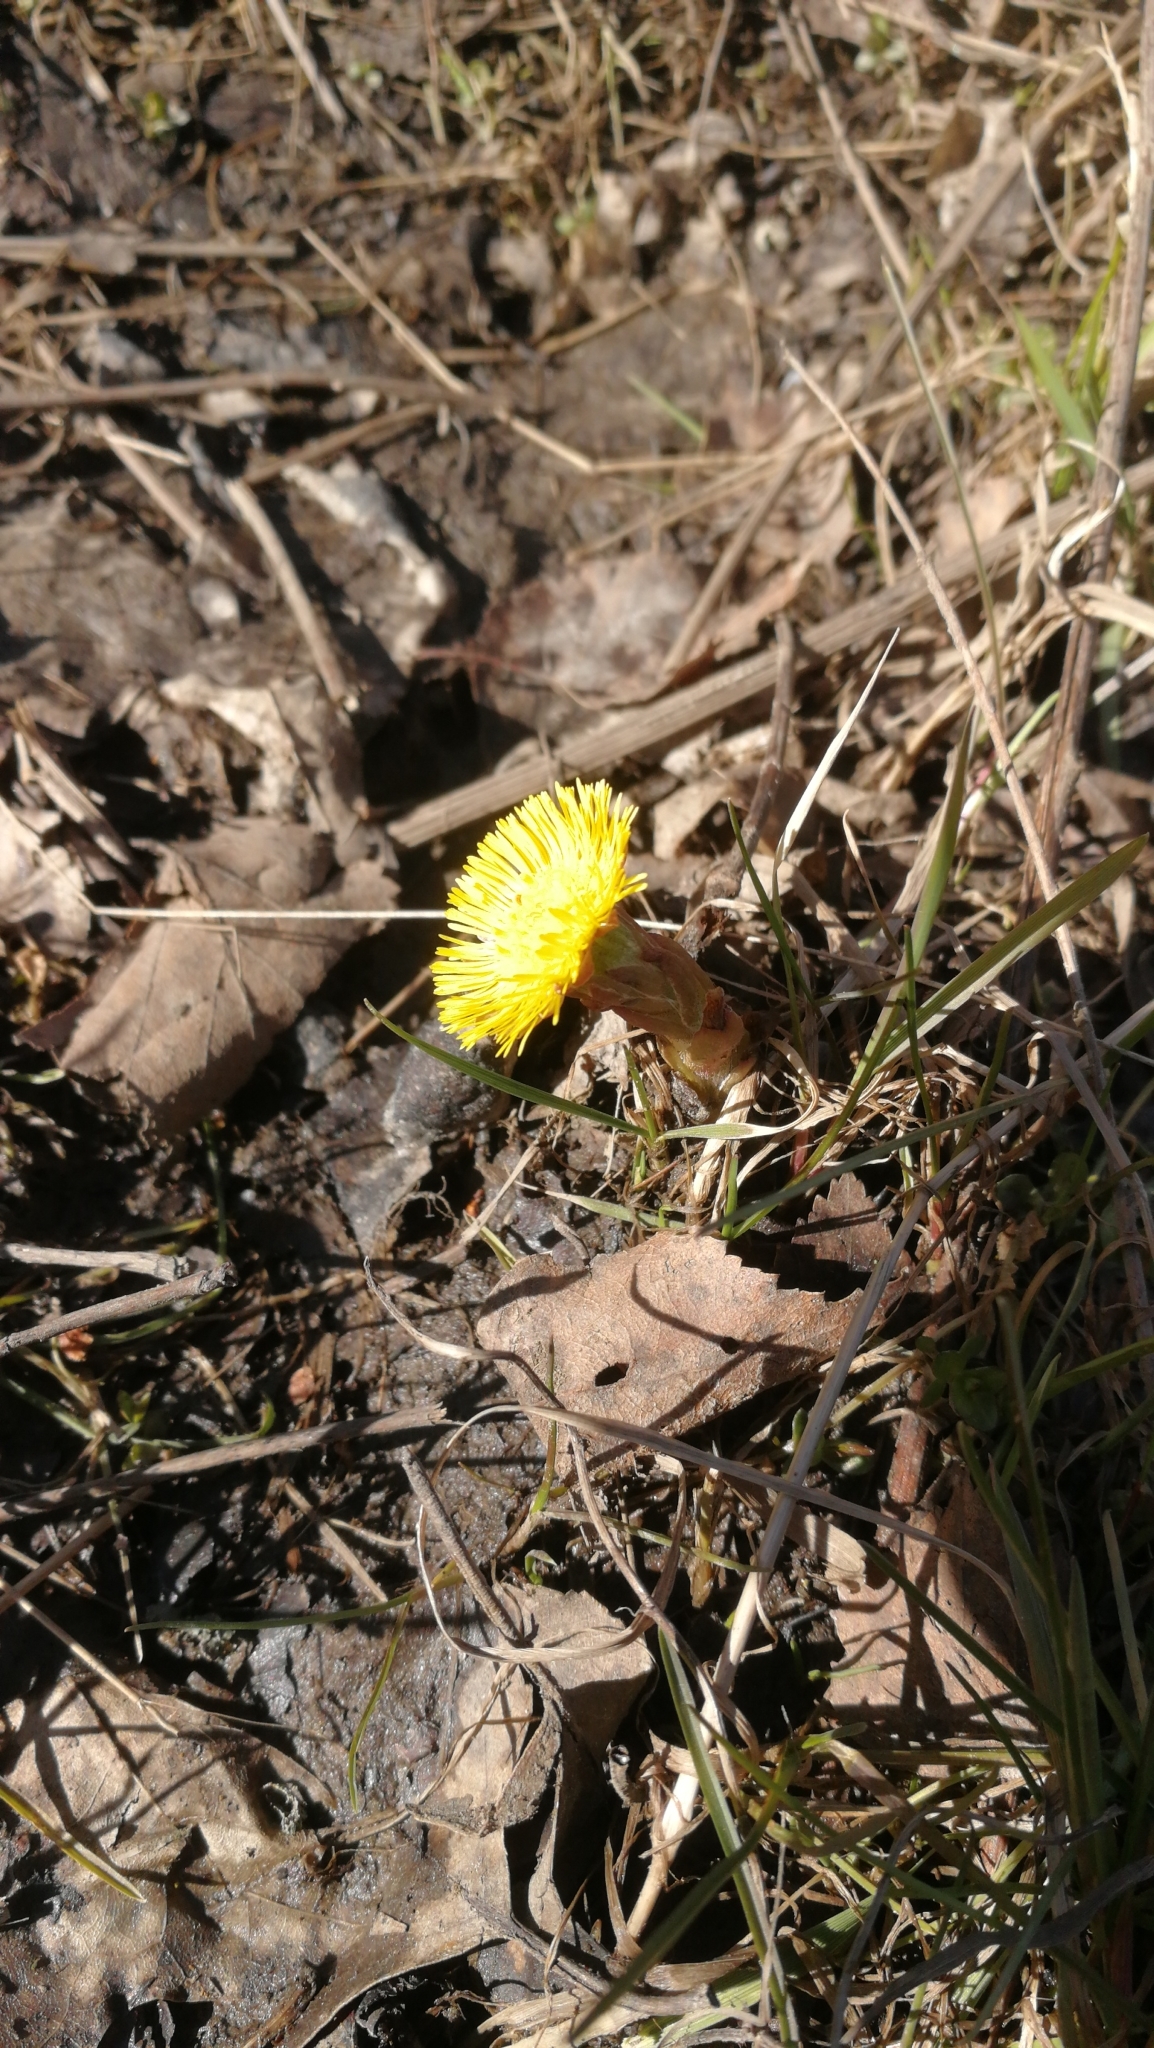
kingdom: Plantae
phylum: Tracheophyta
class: Magnoliopsida
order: Asterales
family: Asteraceae
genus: Tussilago
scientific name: Tussilago farfara
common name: Coltsfoot
